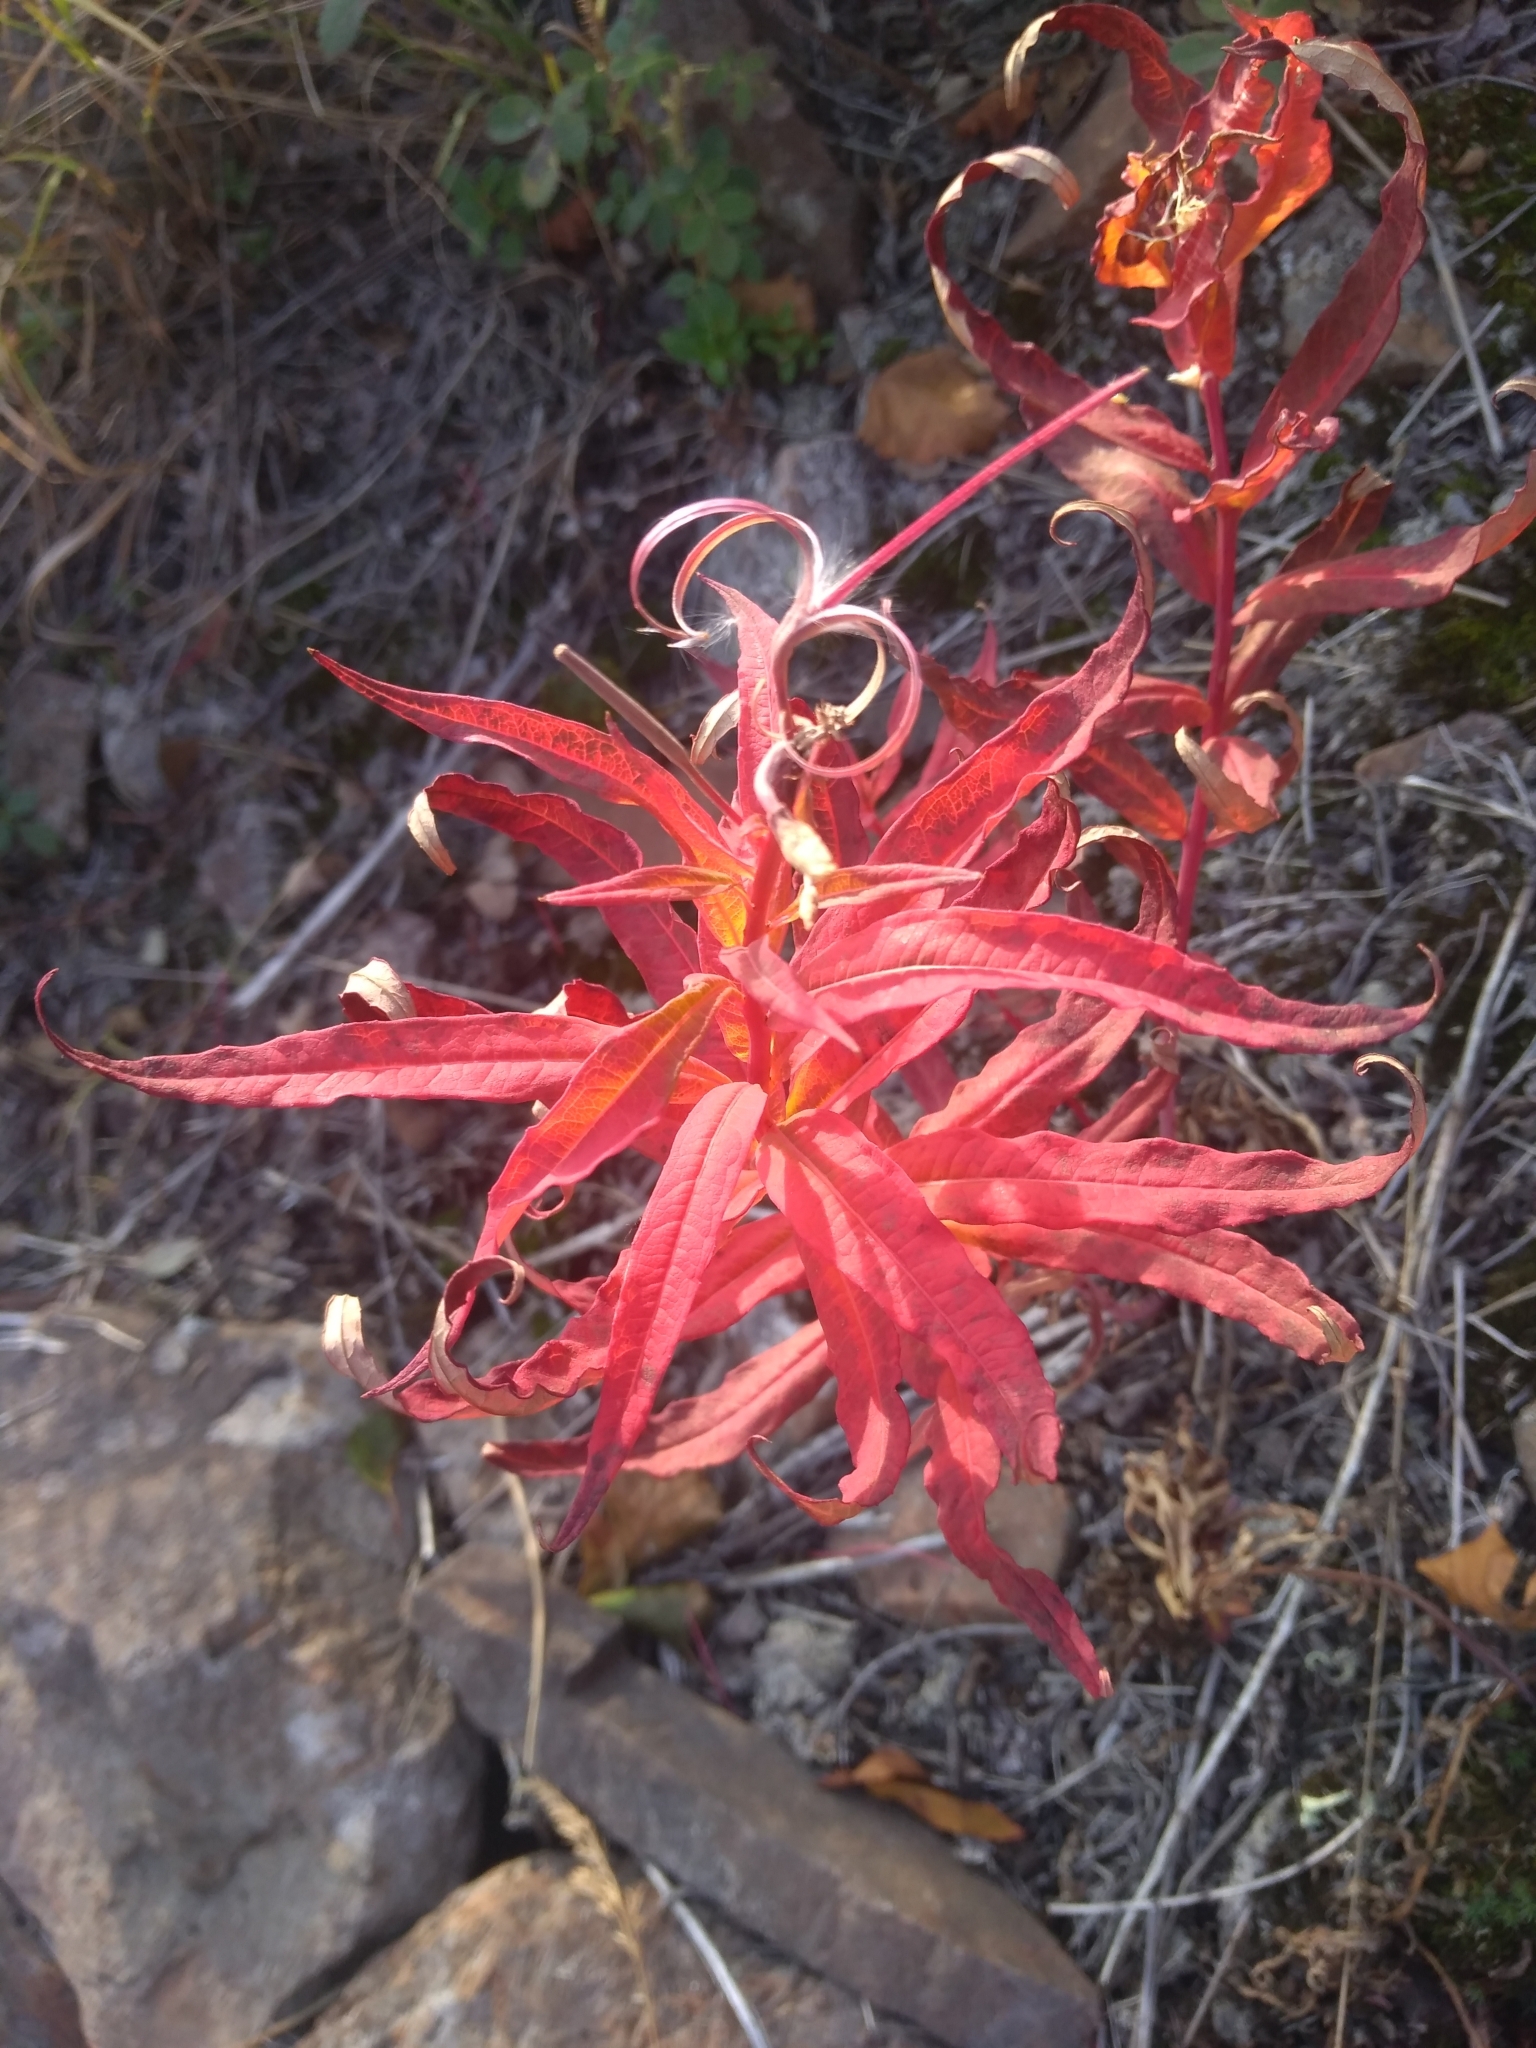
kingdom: Plantae
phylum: Tracheophyta
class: Magnoliopsida
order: Myrtales
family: Onagraceae
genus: Chamaenerion
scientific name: Chamaenerion angustifolium
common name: Fireweed
